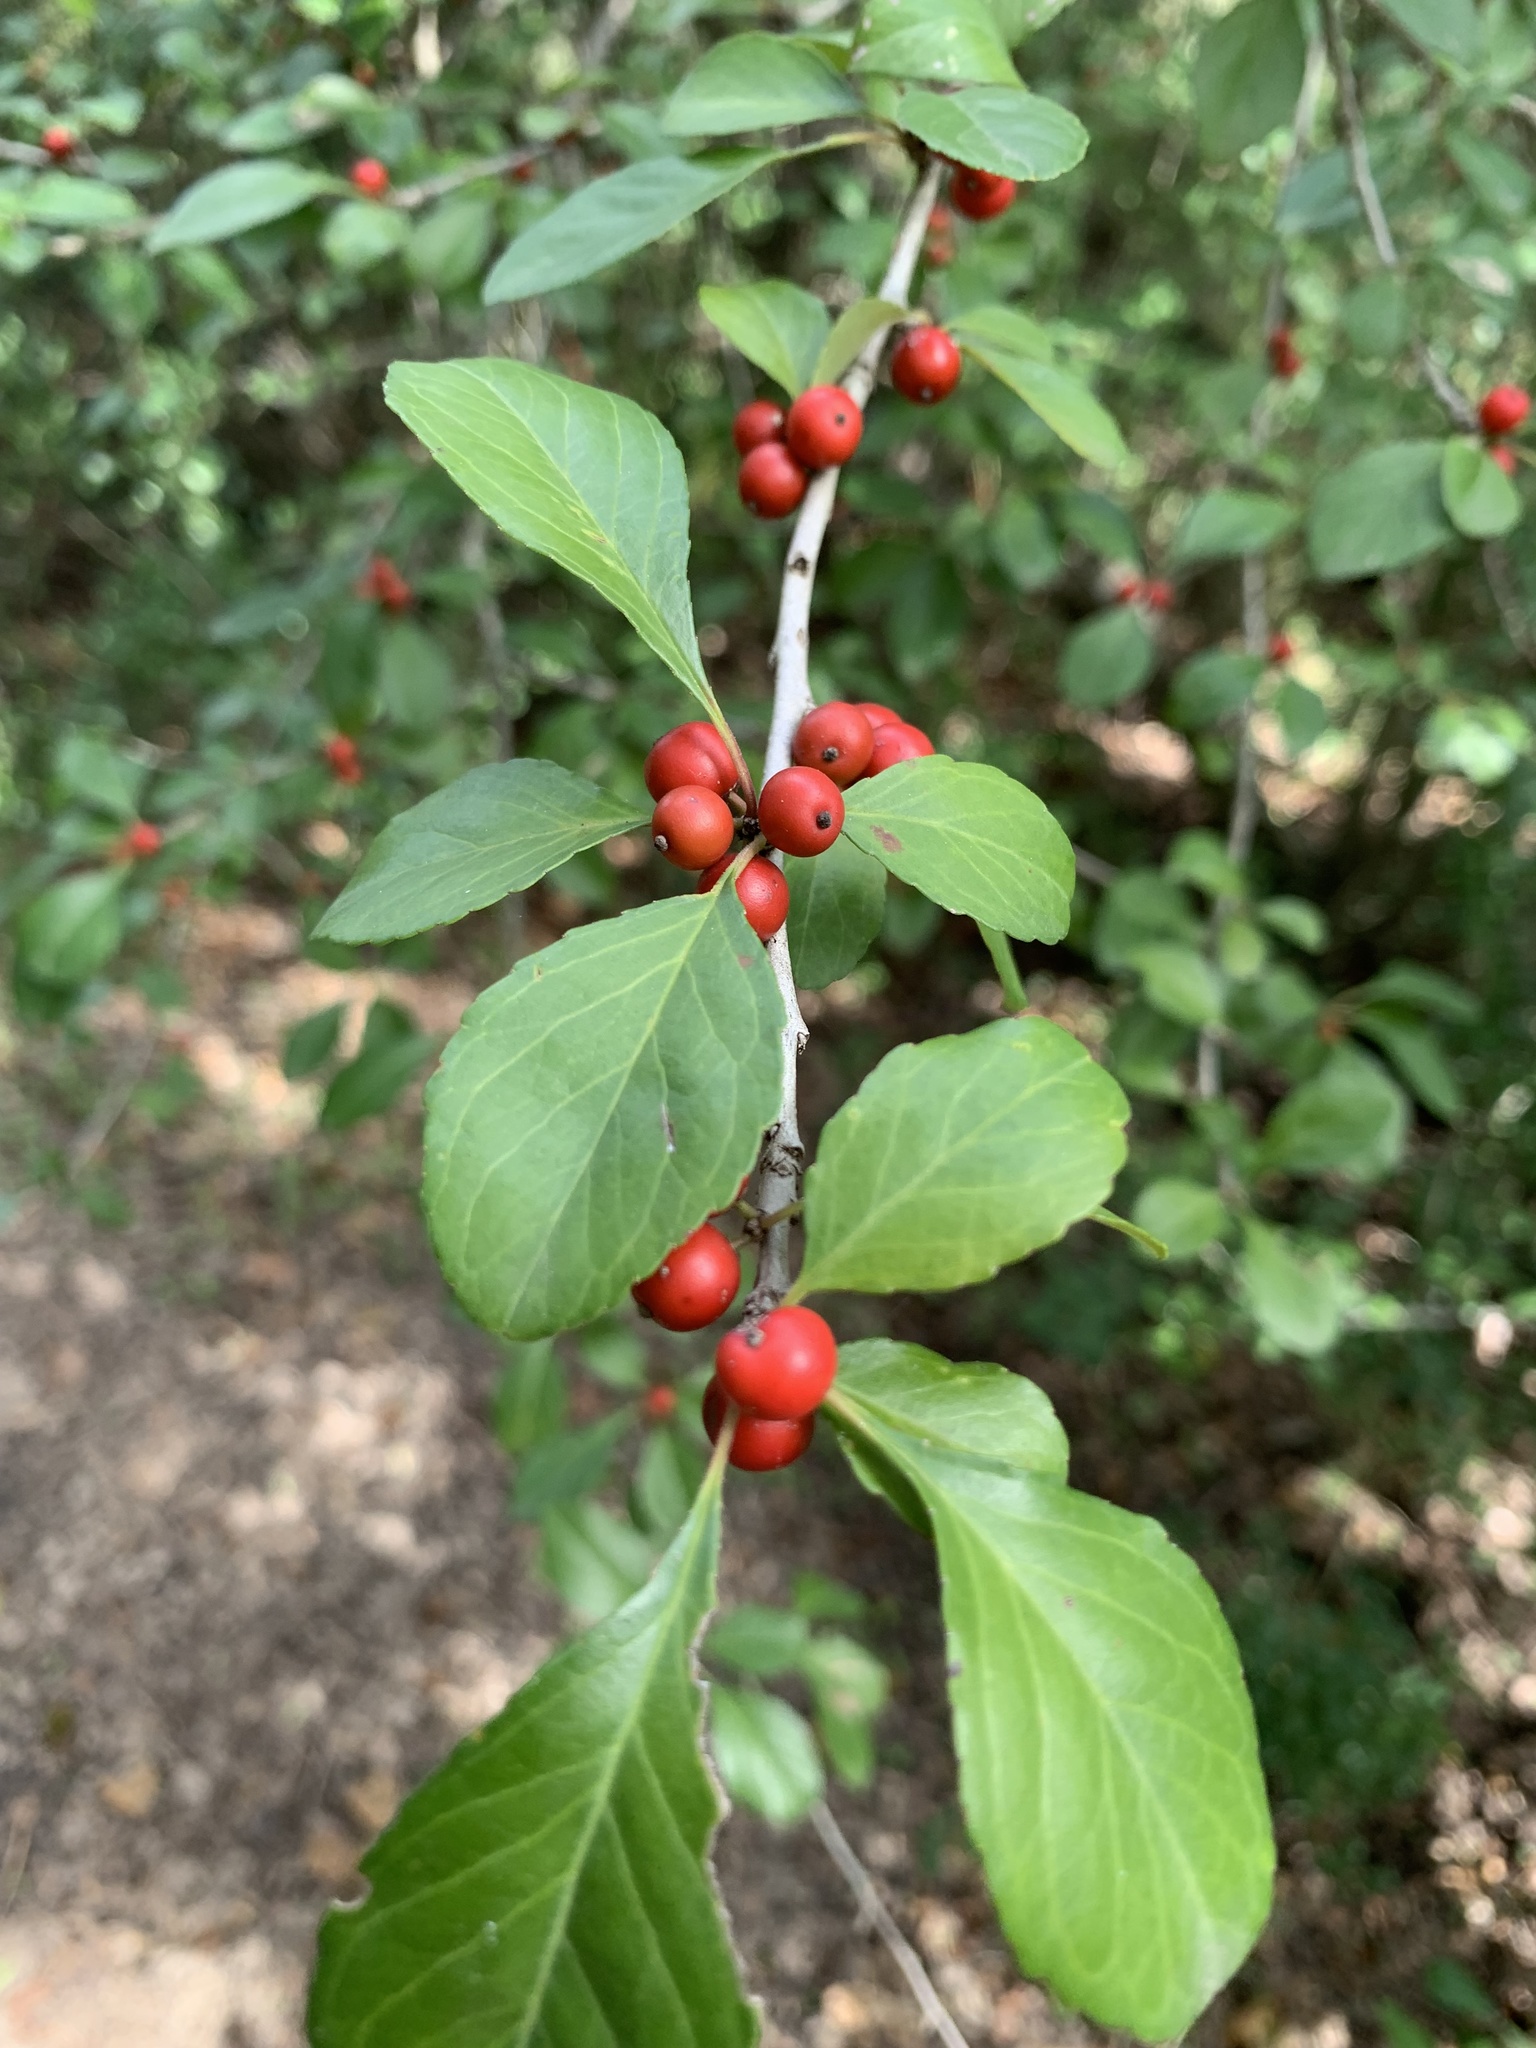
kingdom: Plantae
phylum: Tracheophyta
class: Magnoliopsida
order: Aquifoliales
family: Aquifoliaceae
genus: Ilex
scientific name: Ilex decidua
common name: Possum-haw
